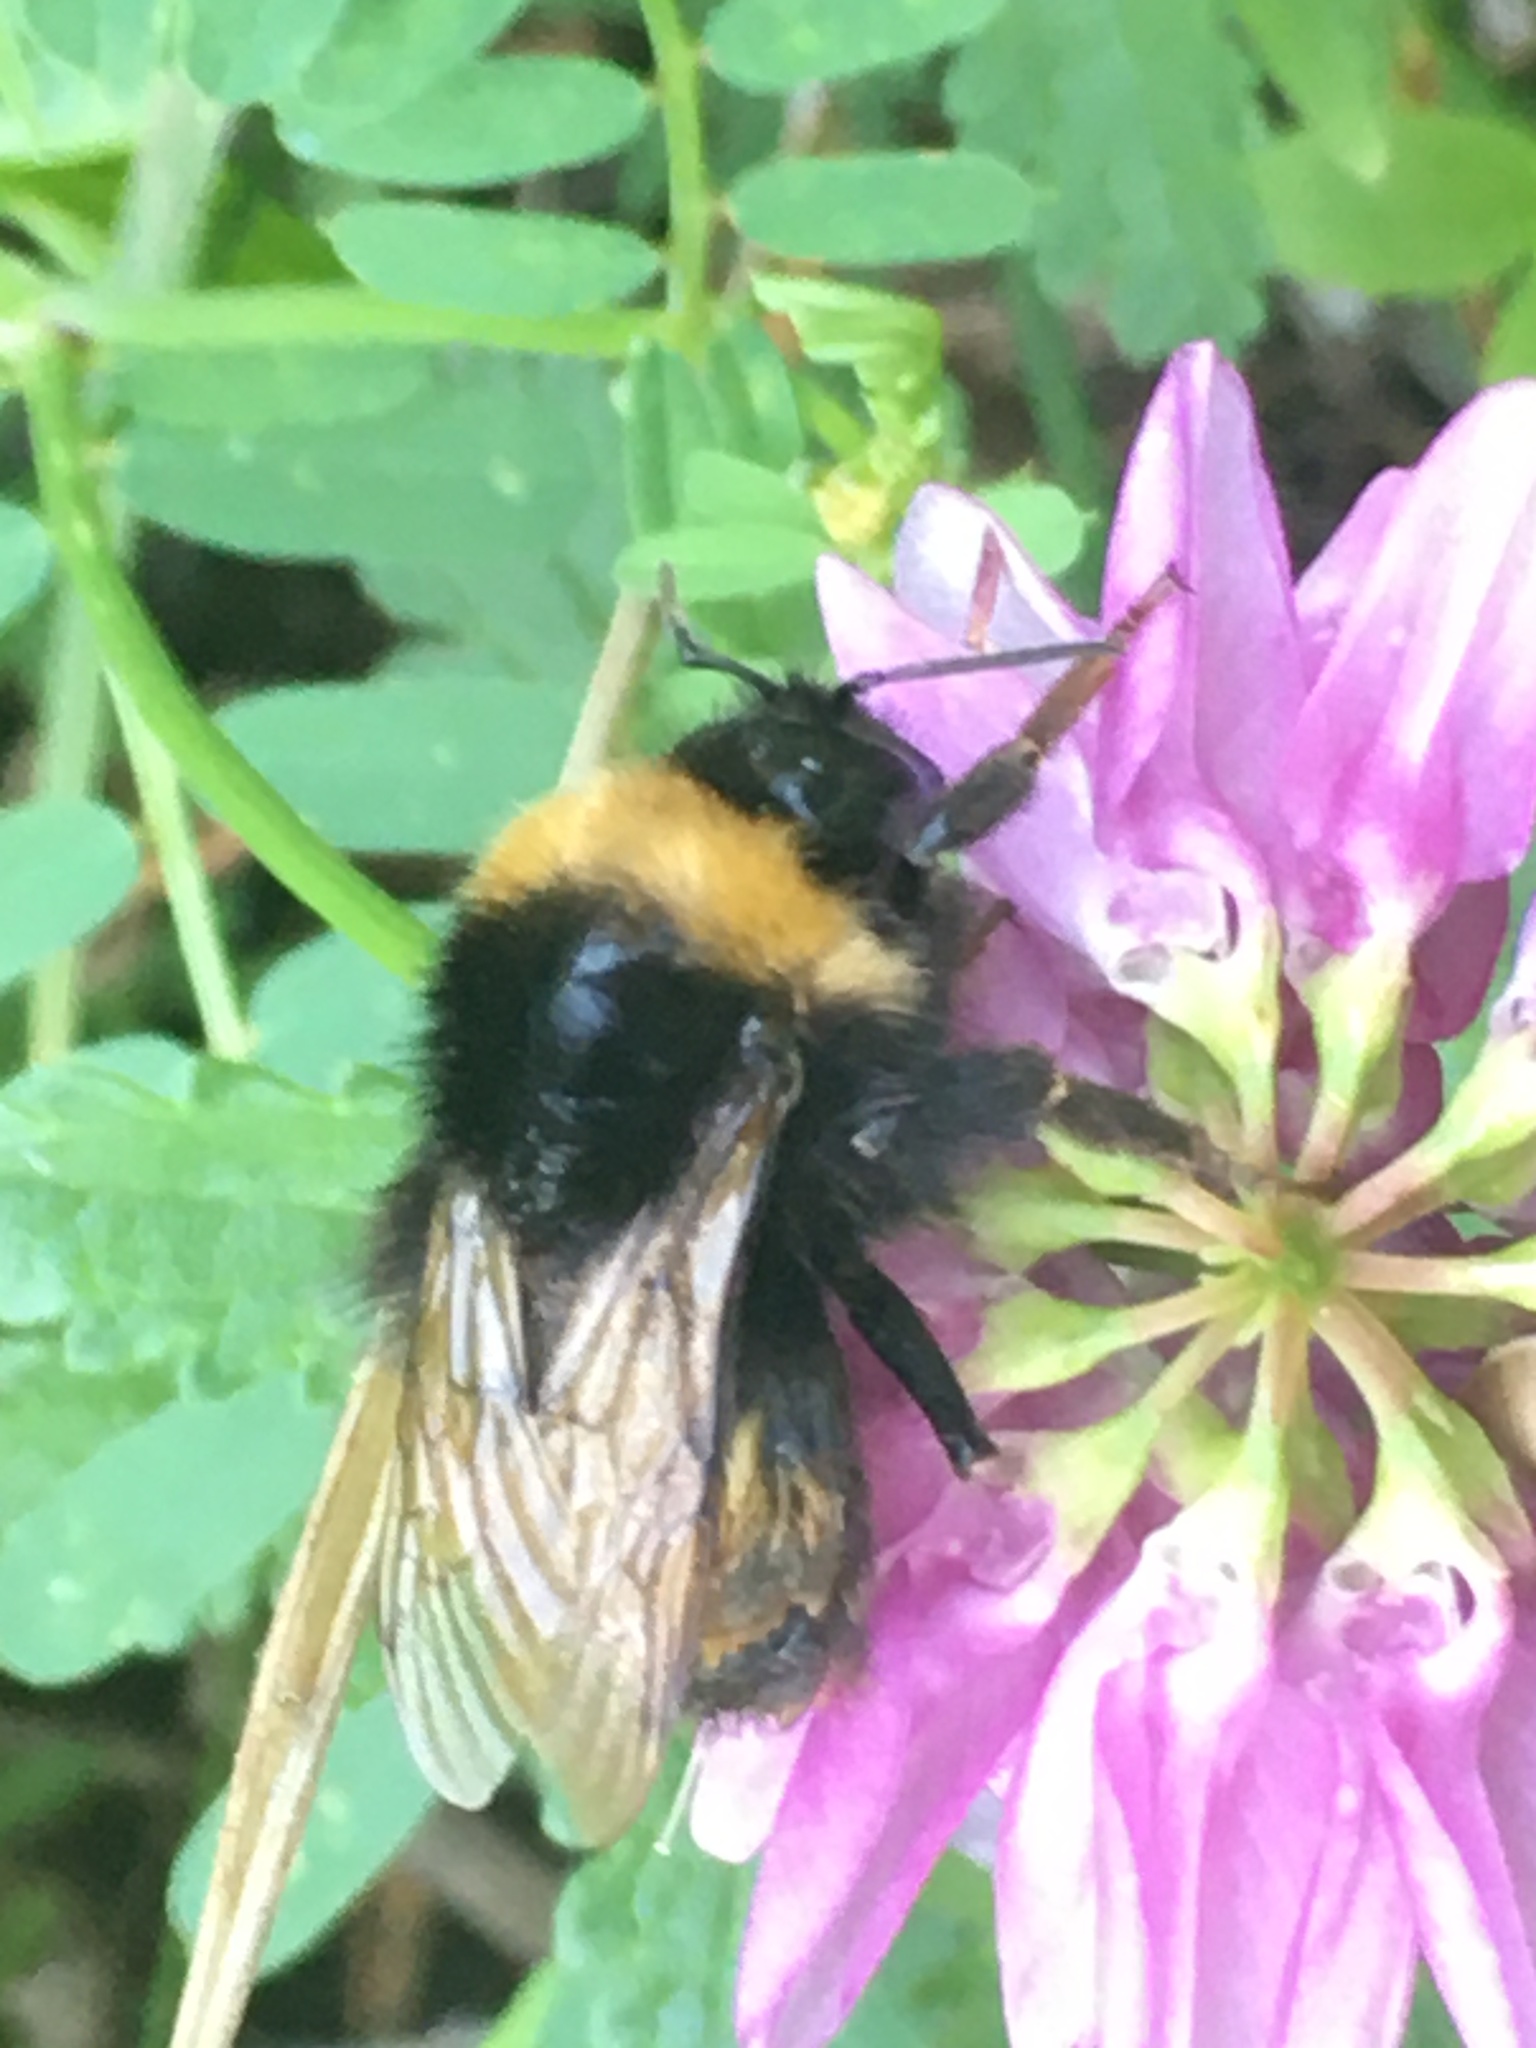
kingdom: Animalia
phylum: Arthropoda
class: Insecta
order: Hymenoptera
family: Apidae
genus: Bombus
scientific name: Bombus haematurus
